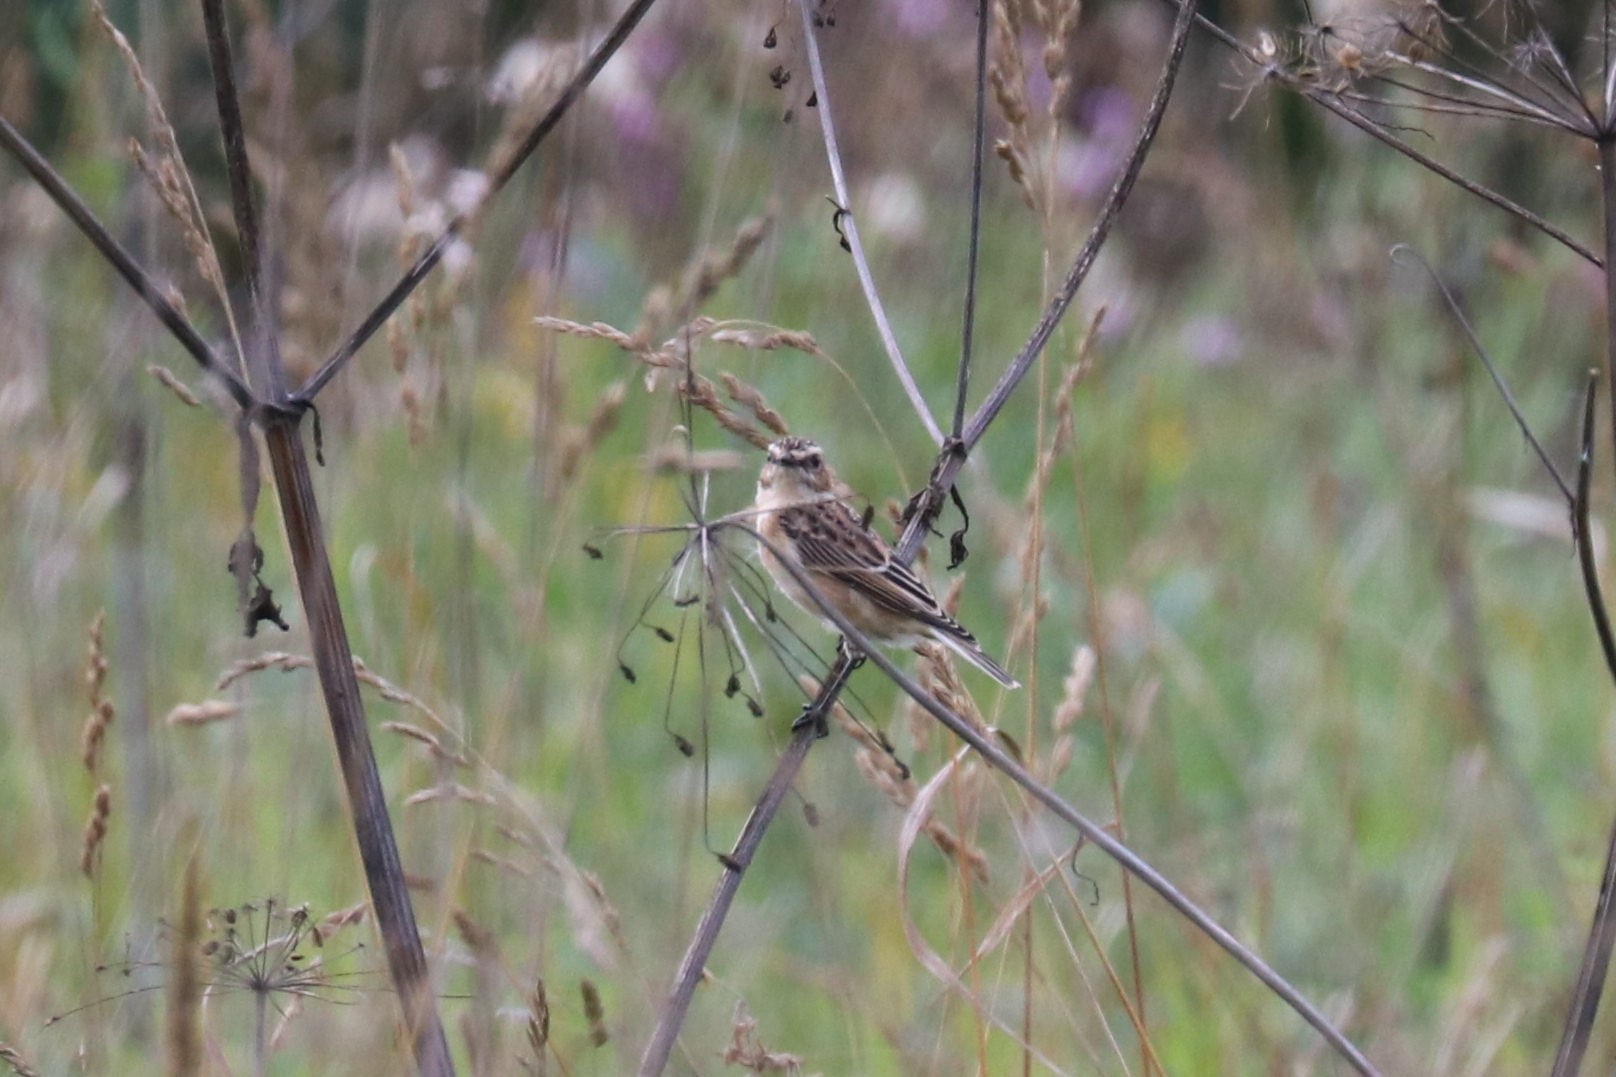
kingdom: Animalia
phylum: Chordata
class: Aves
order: Passeriformes
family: Muscicapidae
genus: Saxicola
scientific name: Saxicola rubetra
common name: Whinchat
